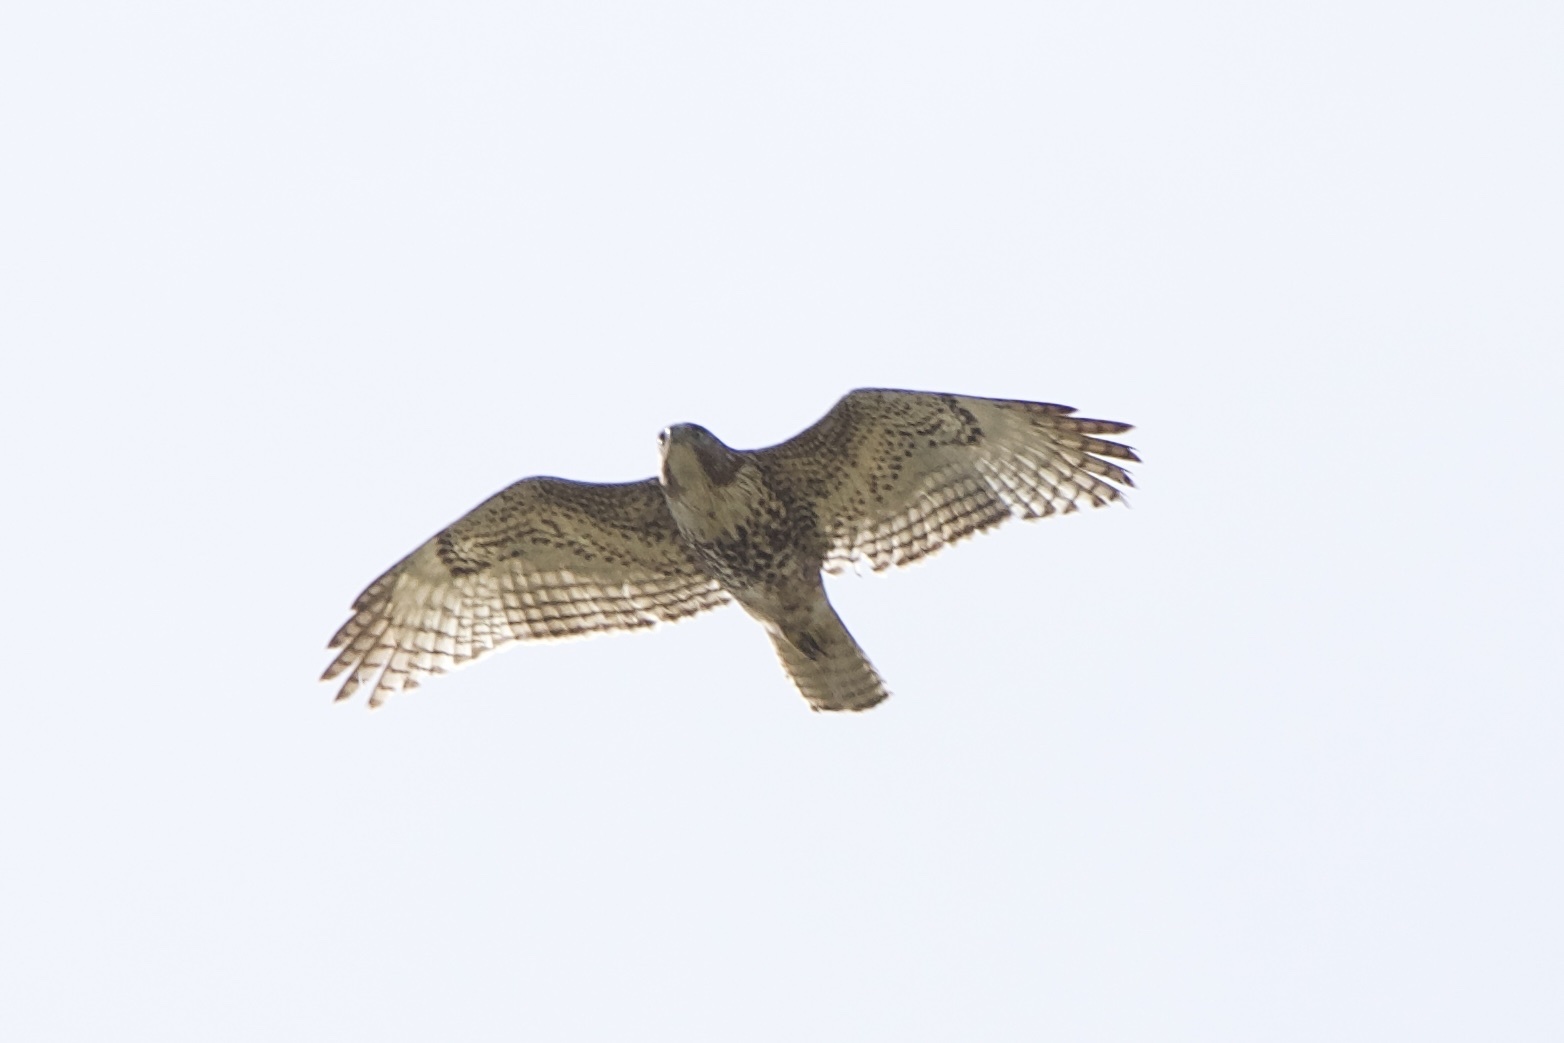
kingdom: Animalia
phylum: Chordata
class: Aves
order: Accipitriformes
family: Accipitridae
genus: Buteo
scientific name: Buteo jamaicensis
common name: Red-tailed hawk
